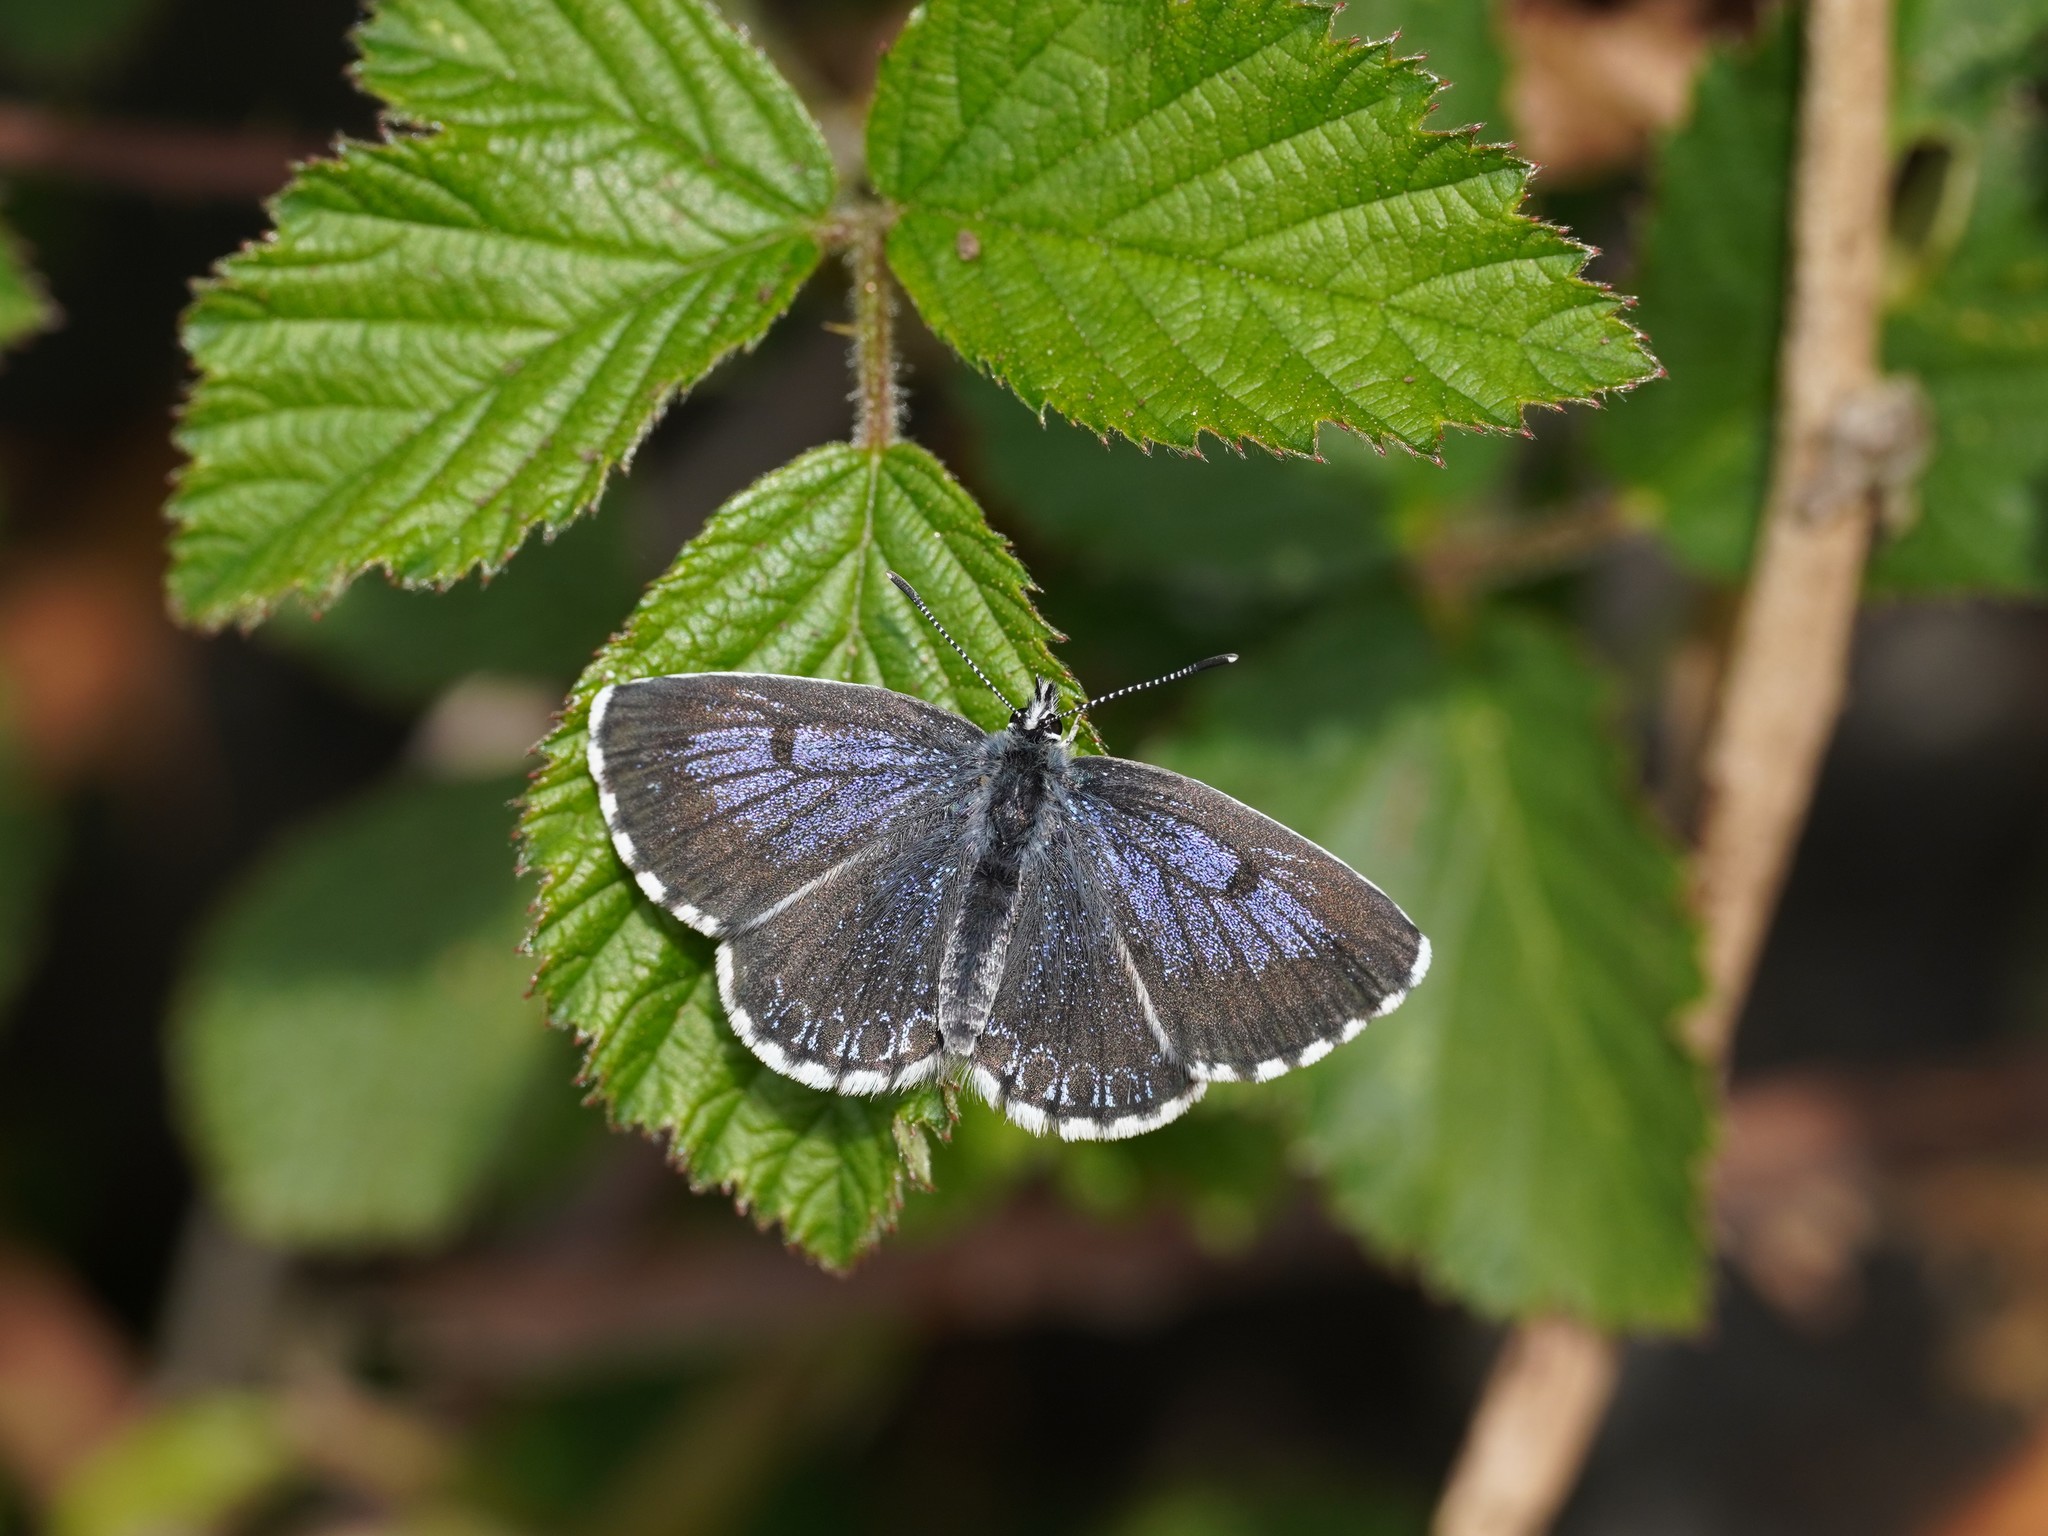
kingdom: Animalia
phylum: Arthropoda
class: Insecta
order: Lepidoptera
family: Lycaenidae
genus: Scolitantides
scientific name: Scolitantides orion
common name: Chequered blue
